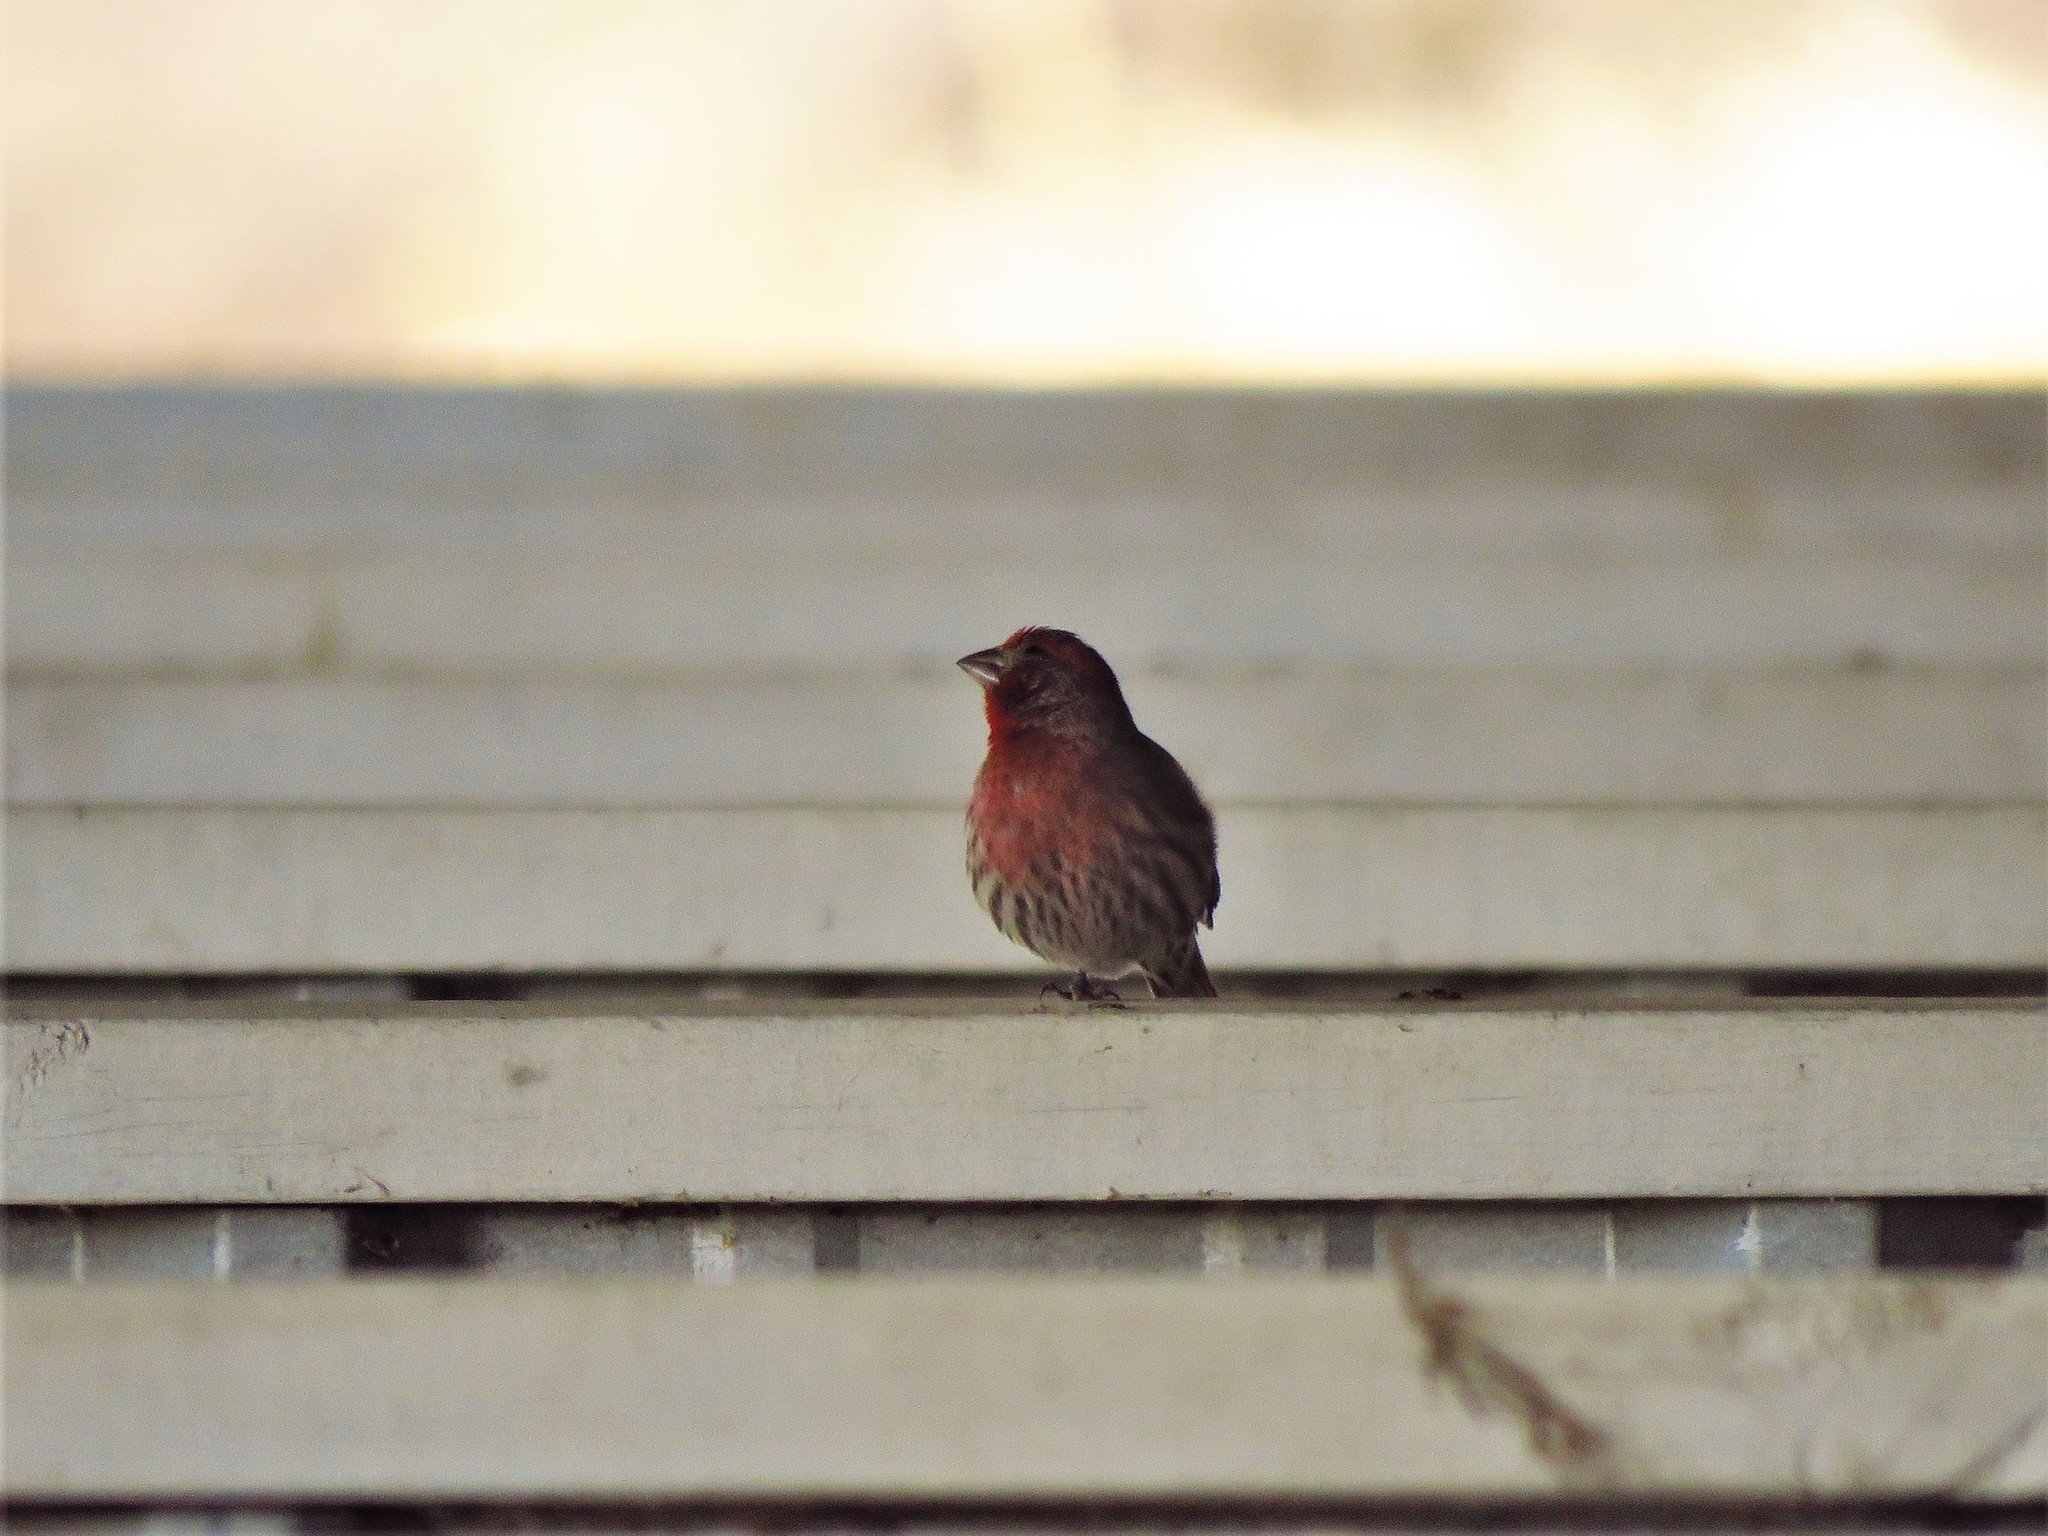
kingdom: Animalia
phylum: Chordata
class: Aves
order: Passeriformes
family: Fringillidae
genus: Haemorhous
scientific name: Haemorhous mexicanus
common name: House finch
